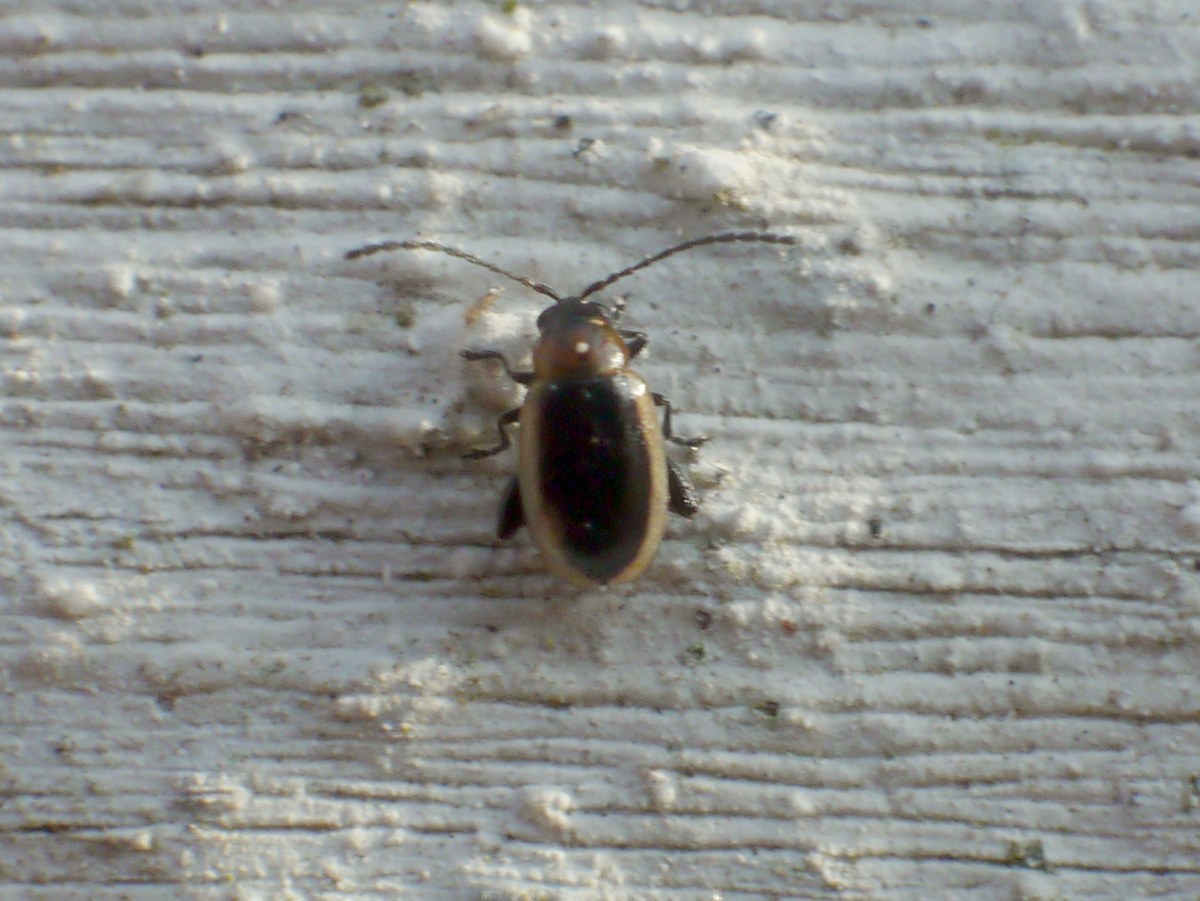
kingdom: Animalia
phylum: Arthropoda
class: Insecta
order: Coleoptera
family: Chrysomelidae
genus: Longitarsus
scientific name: Longitarsus dorsalis
